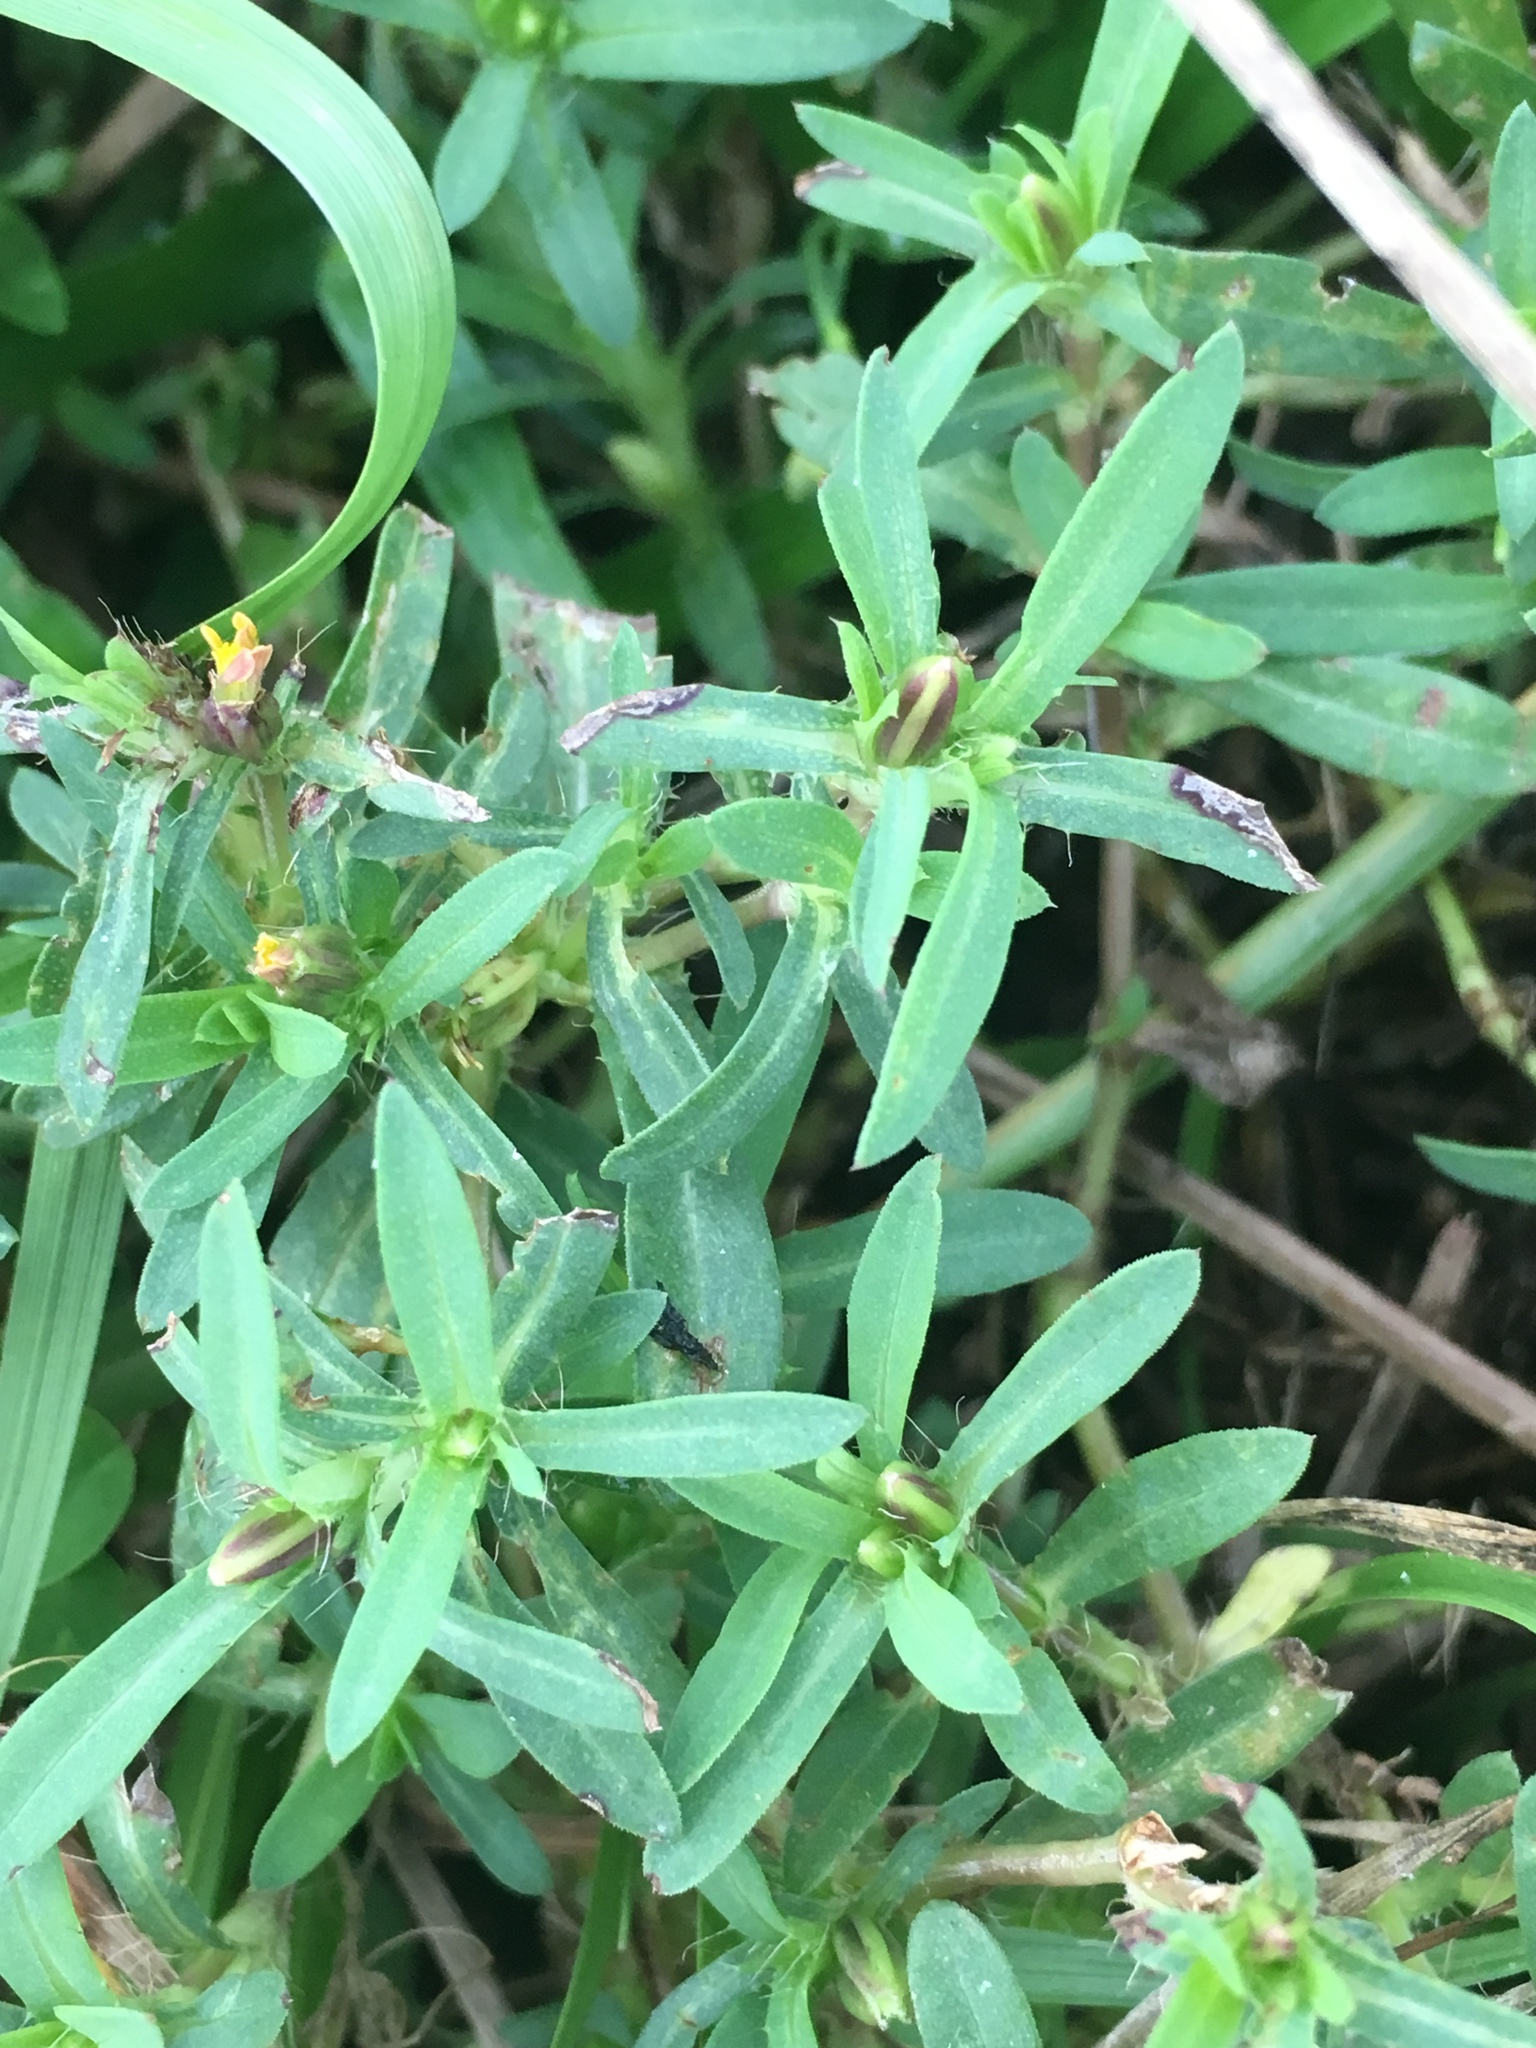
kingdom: Plantae
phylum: Tracheophyta
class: Magnoliopsida
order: Asterales
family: Asteraceae
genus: Pectis
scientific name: Pectis prostrata
